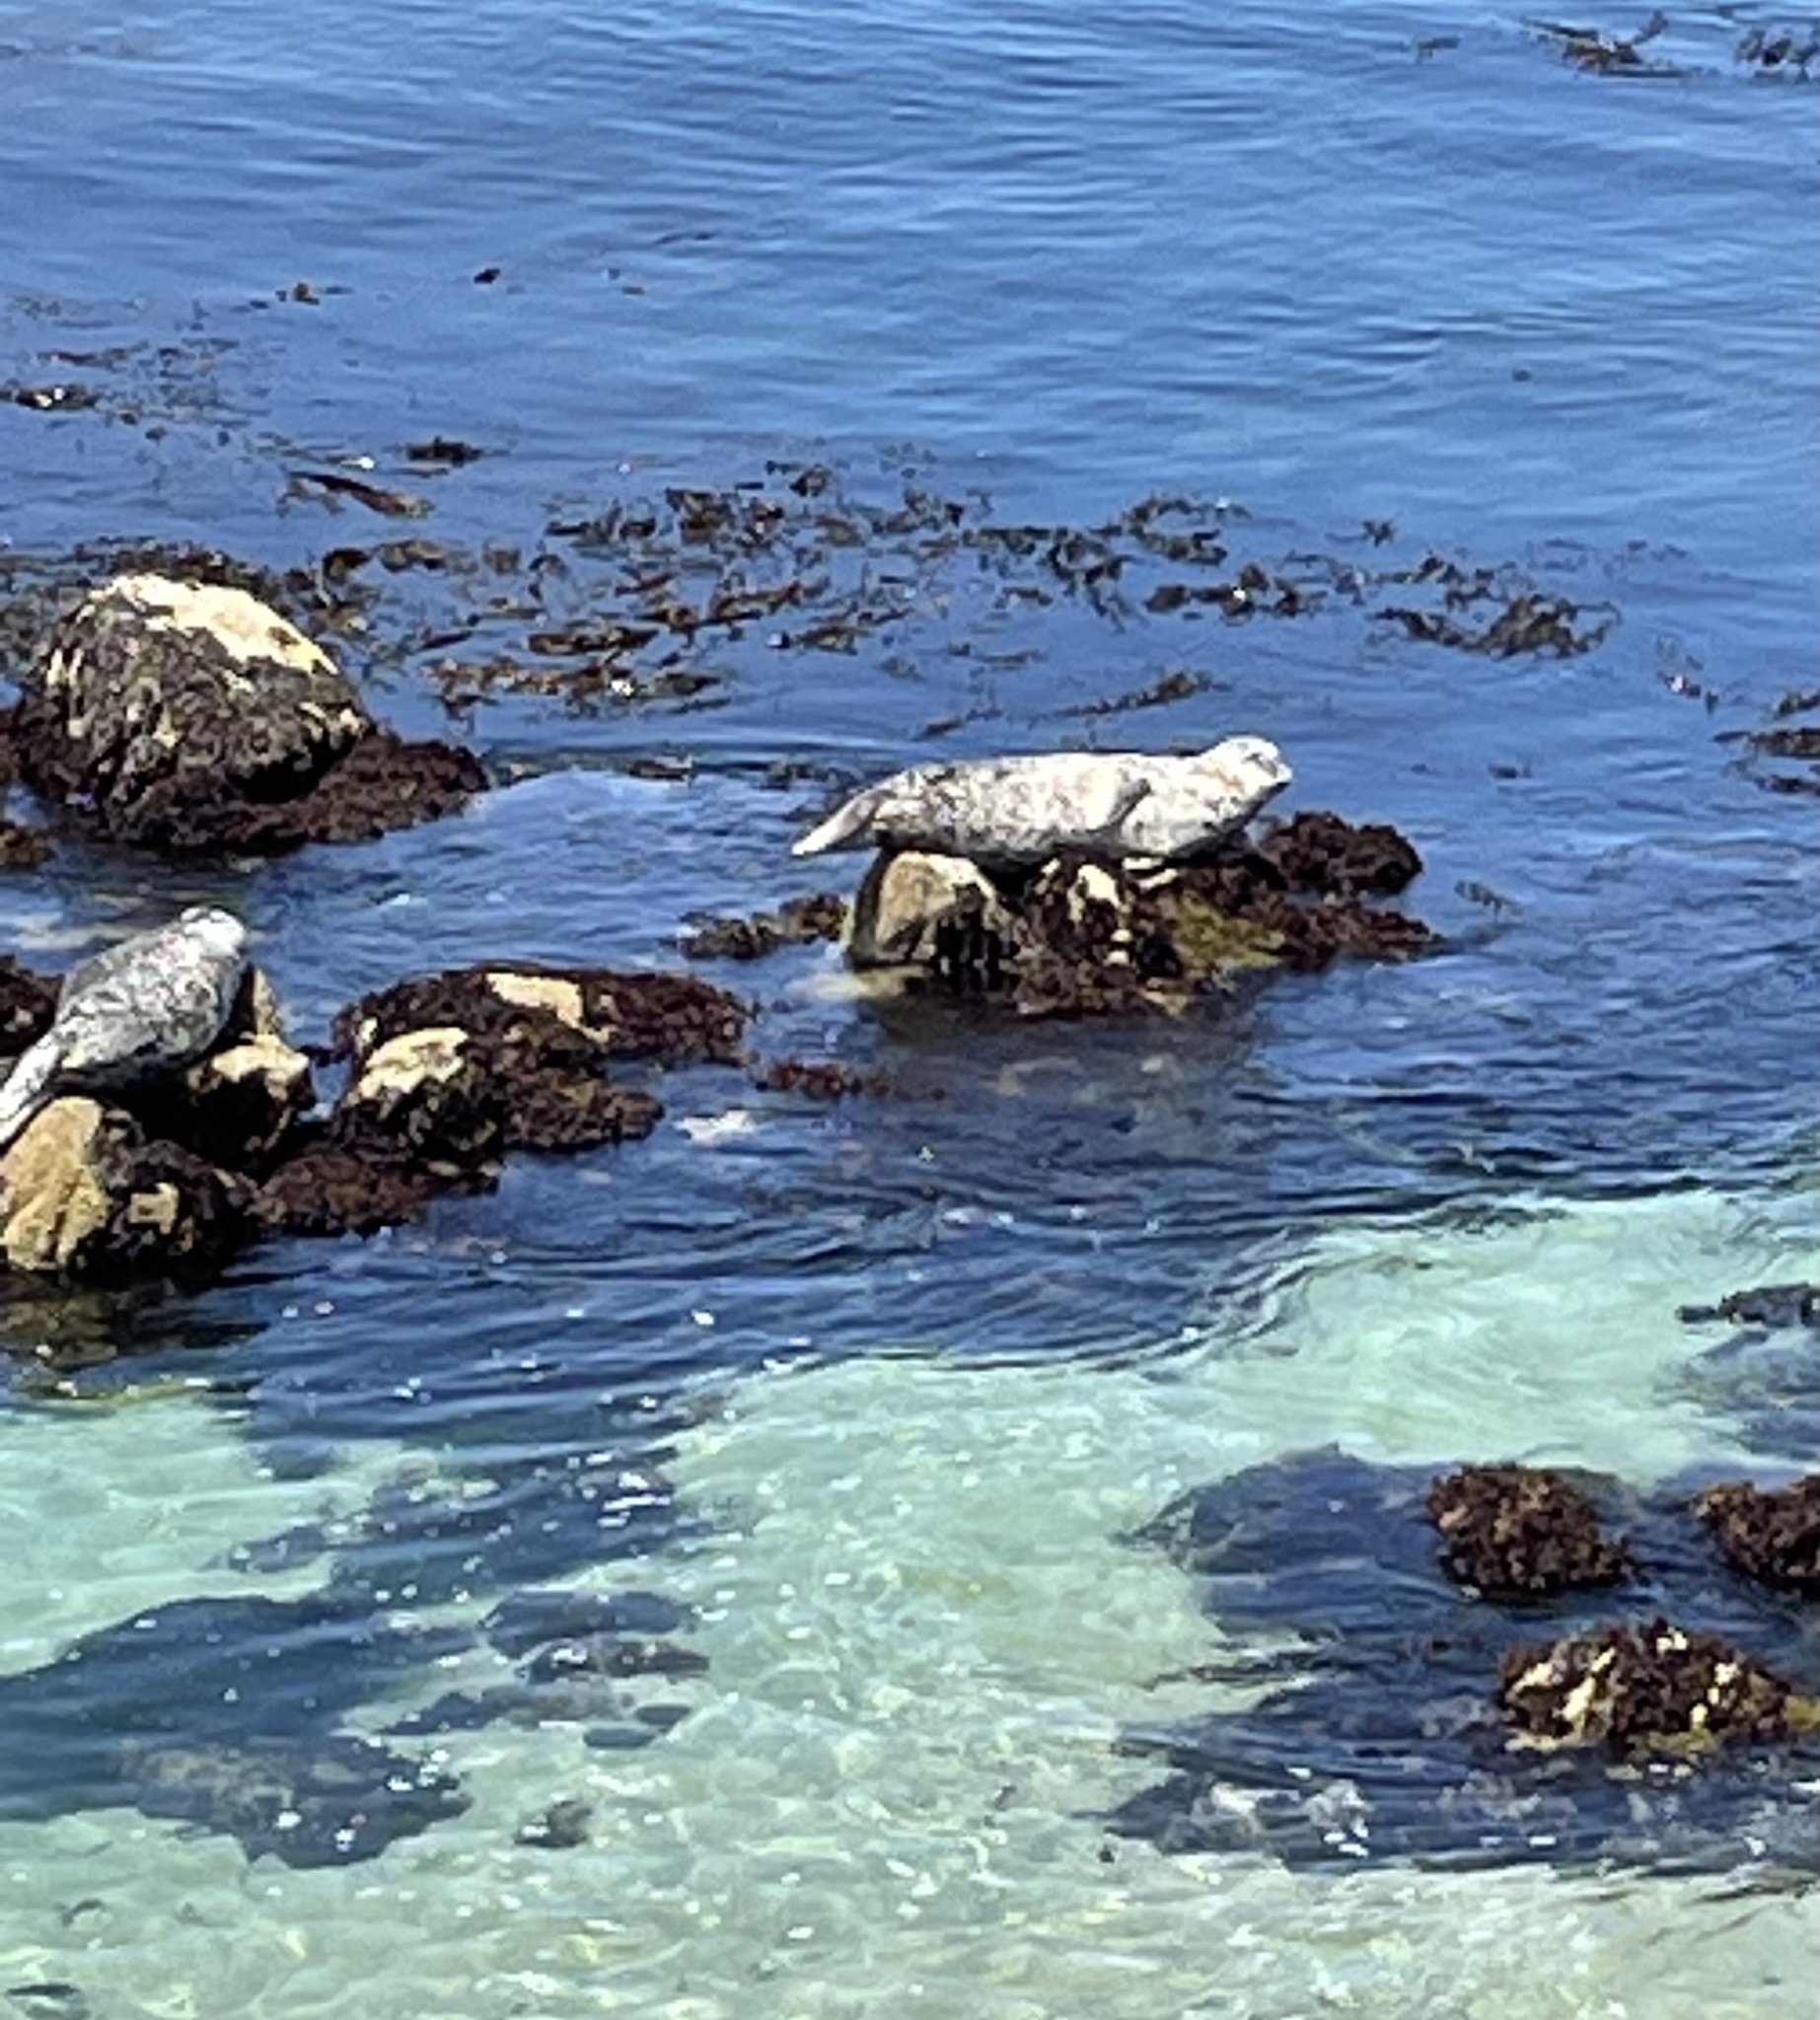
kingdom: Animalia
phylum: Chordata
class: Mammalia
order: Carnivora
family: Phocidae
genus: Phoca
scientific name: Phoca vitulina
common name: Harbor seal
